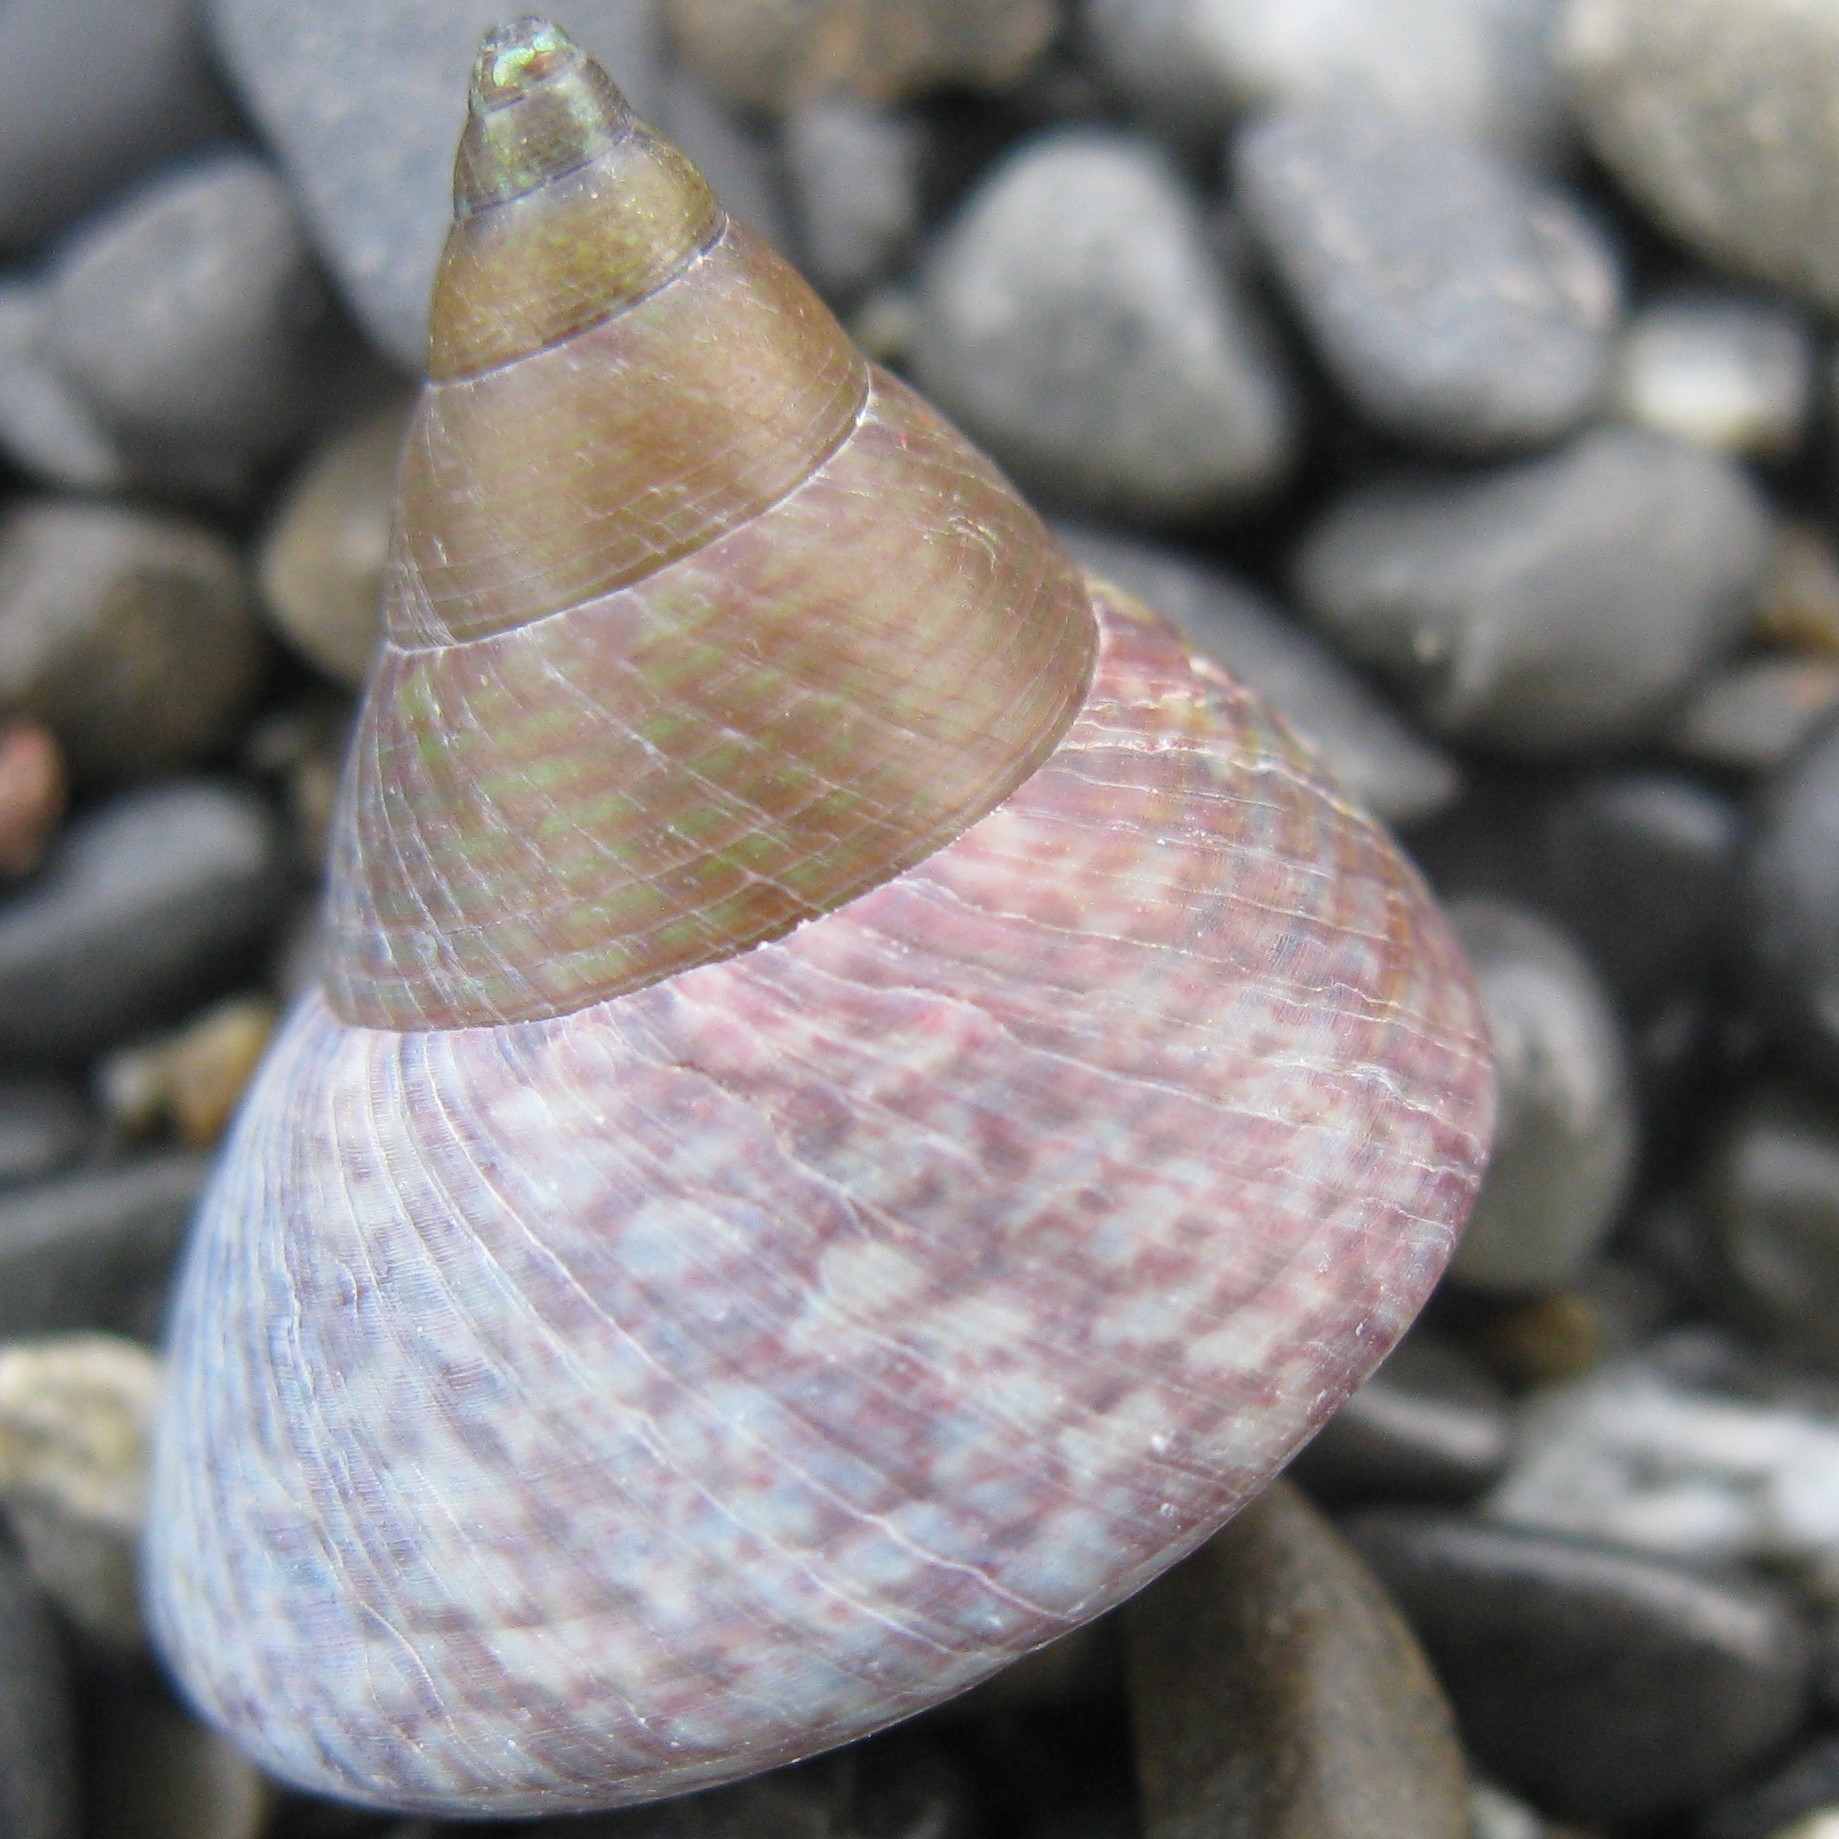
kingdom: Animalia
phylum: Mollusca
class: Gastropoda
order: Trochida
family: Trochidae
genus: Cantharidus
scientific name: Cantharidus opalus
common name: Opal jewel topsnail
